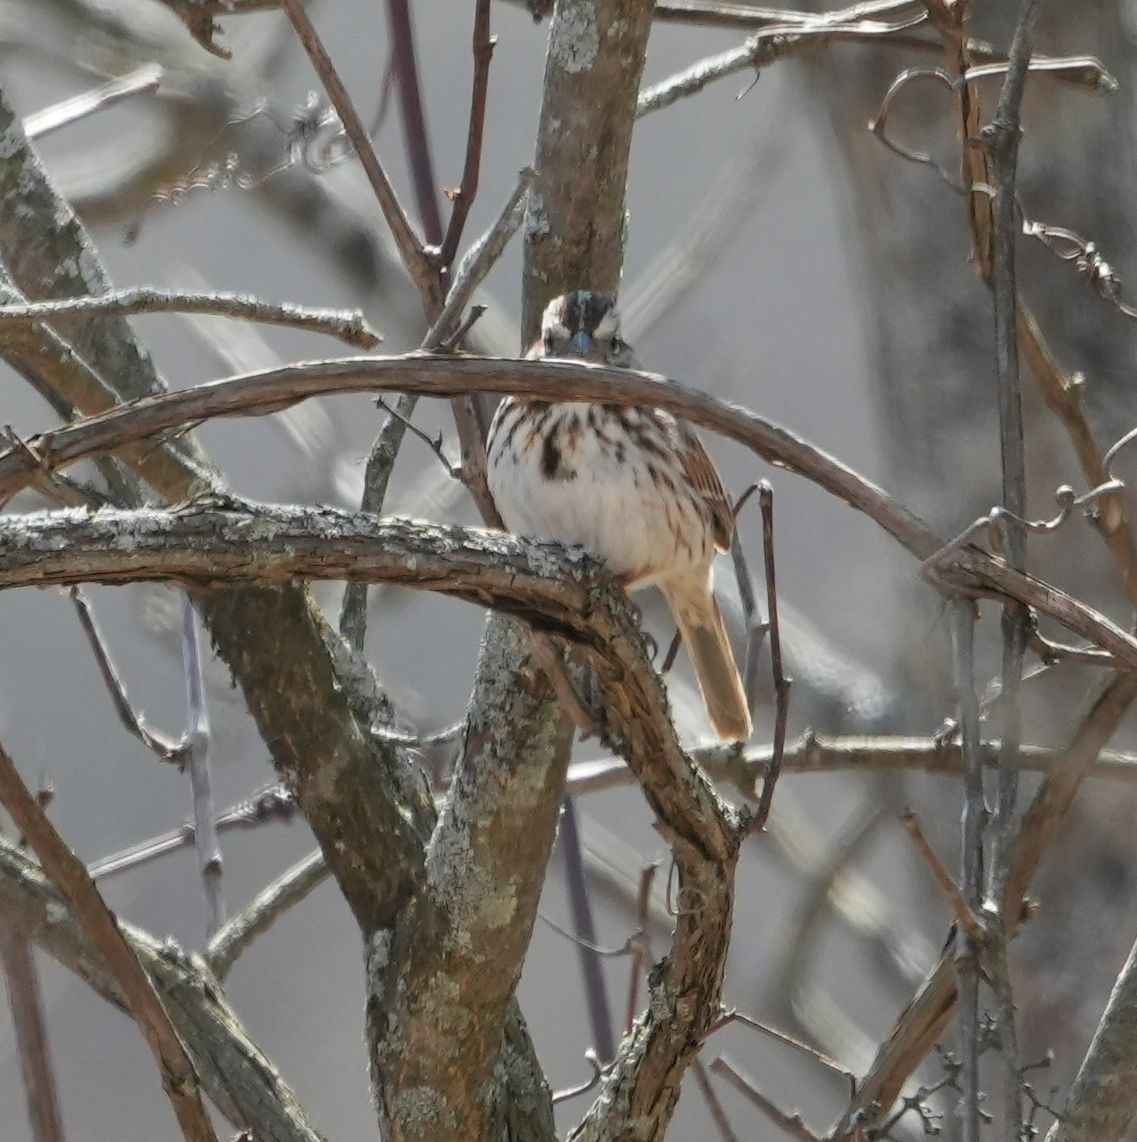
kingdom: Animalia
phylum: Chordata
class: Aves
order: Passeriformes
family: Passerellidae
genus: Melospiza
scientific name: Melospiza melodia
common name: Song sparrow
